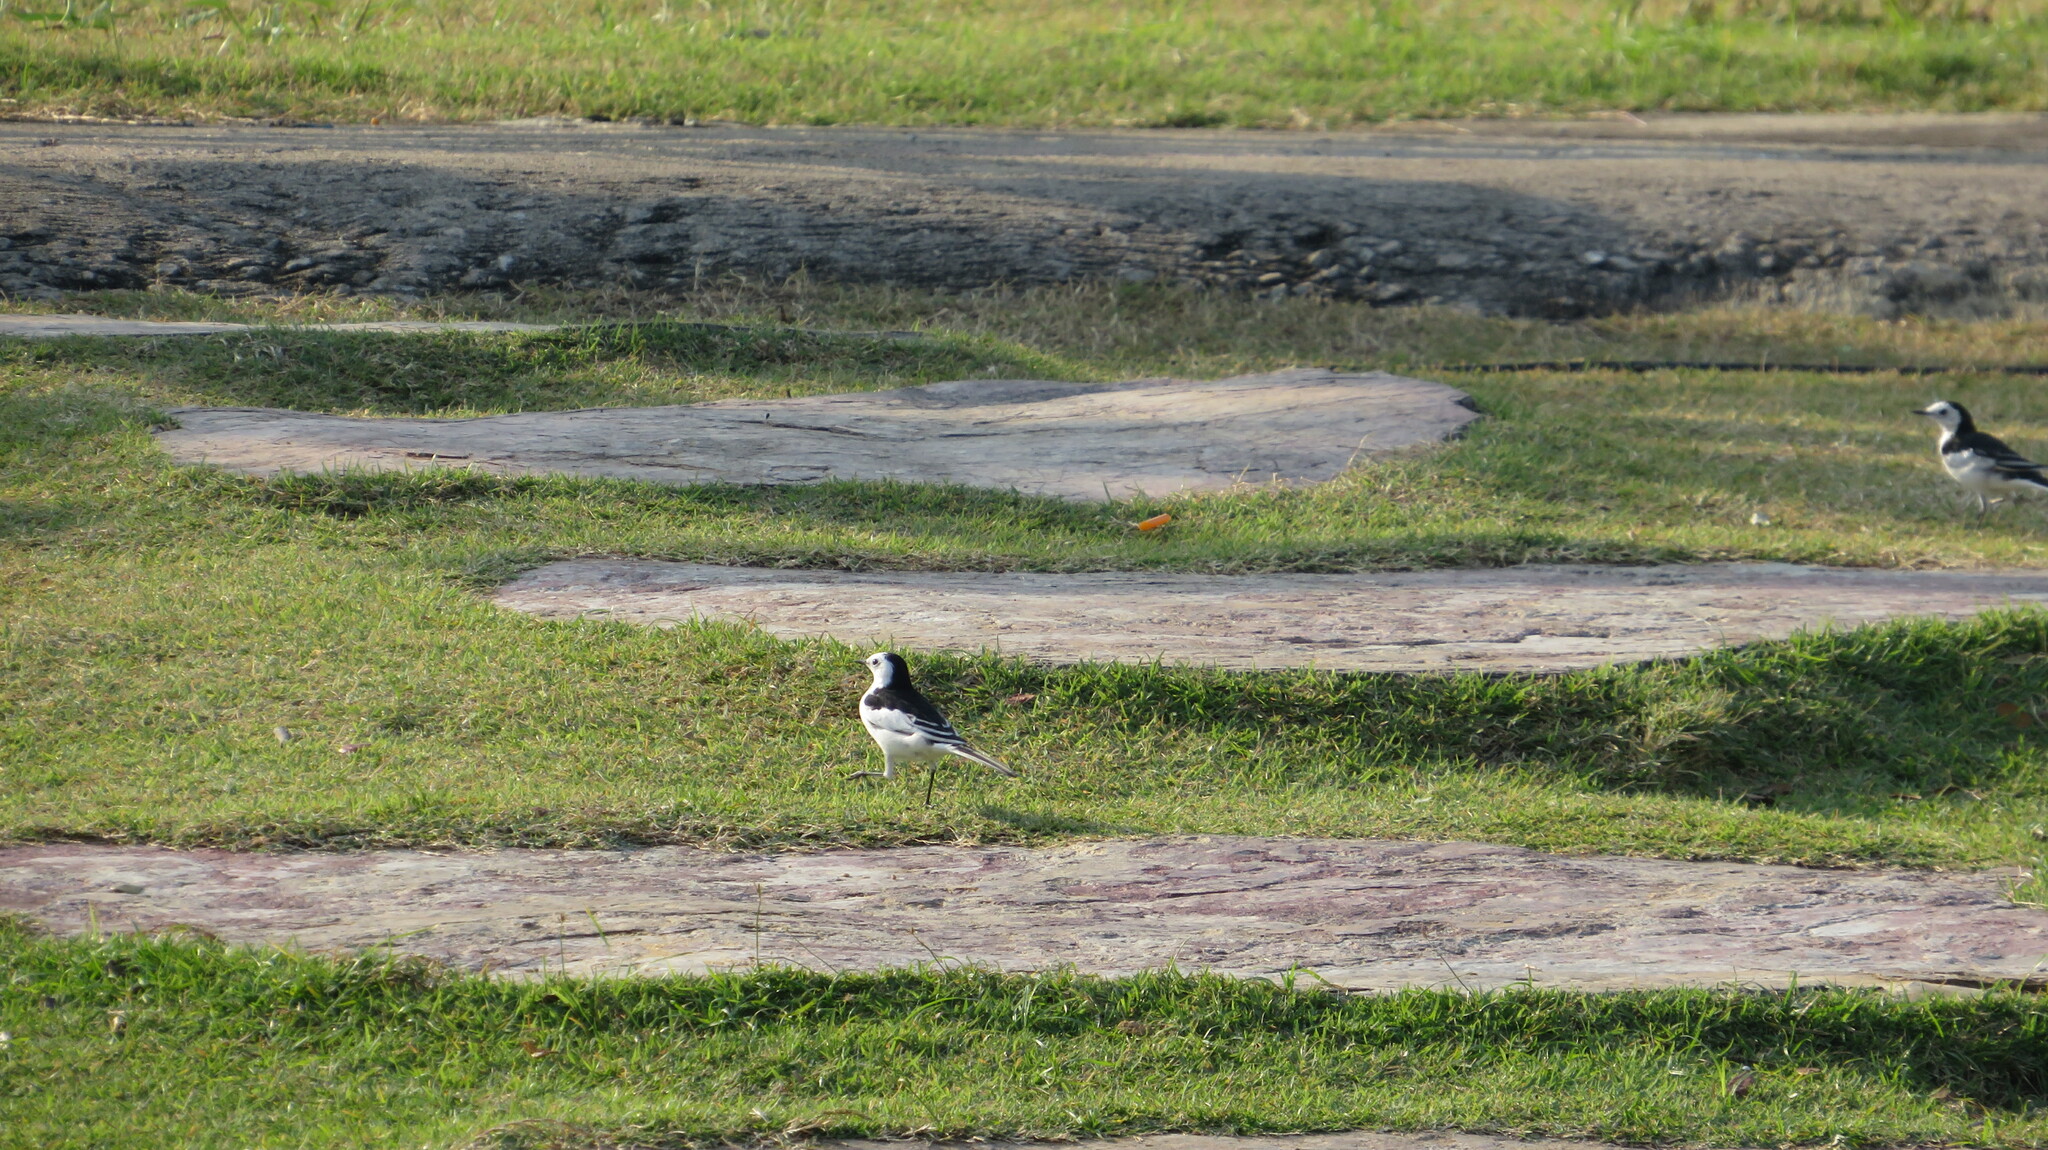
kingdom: Animalia
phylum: Chordata
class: Aves
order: Passeriformes
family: Motacillidae
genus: Motacilla
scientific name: Motacilla alba
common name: White wagtail
